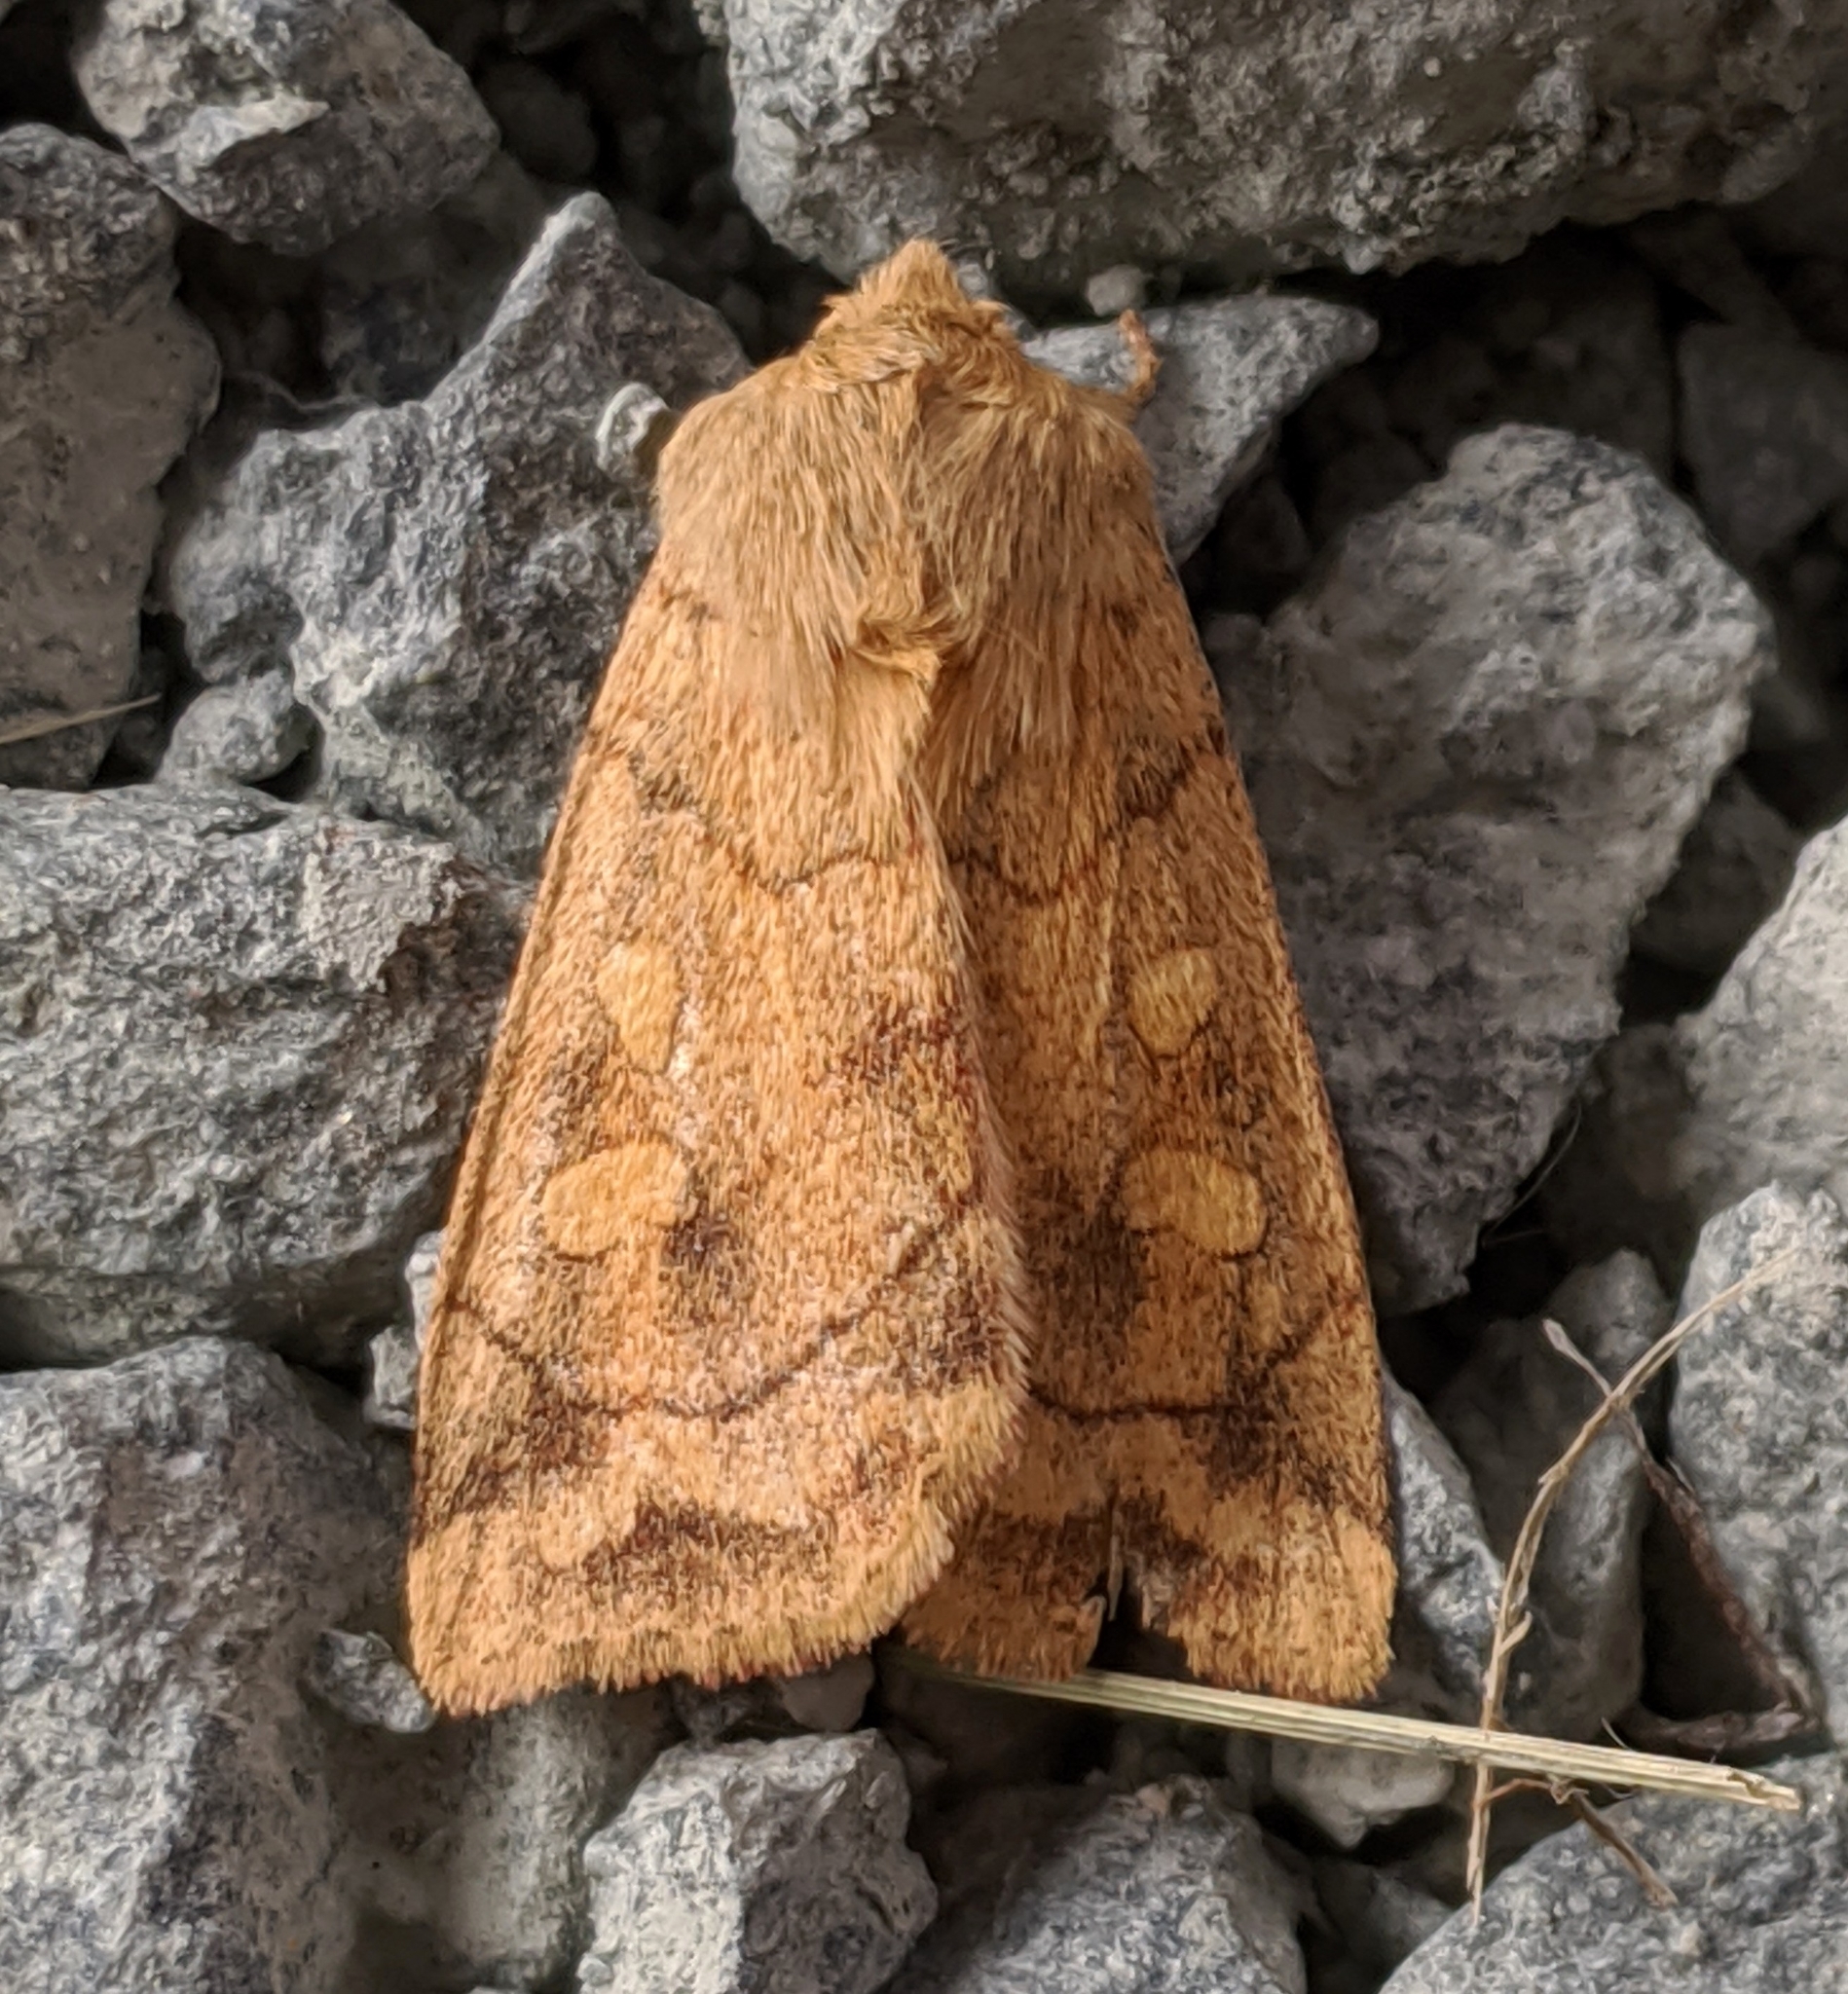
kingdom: Animalia
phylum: Arthropoda
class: Insecta
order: Lepidoptera
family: Noctuidae
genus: Enargia
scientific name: Enargia decolor
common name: Aspen twoleaf tier moth
